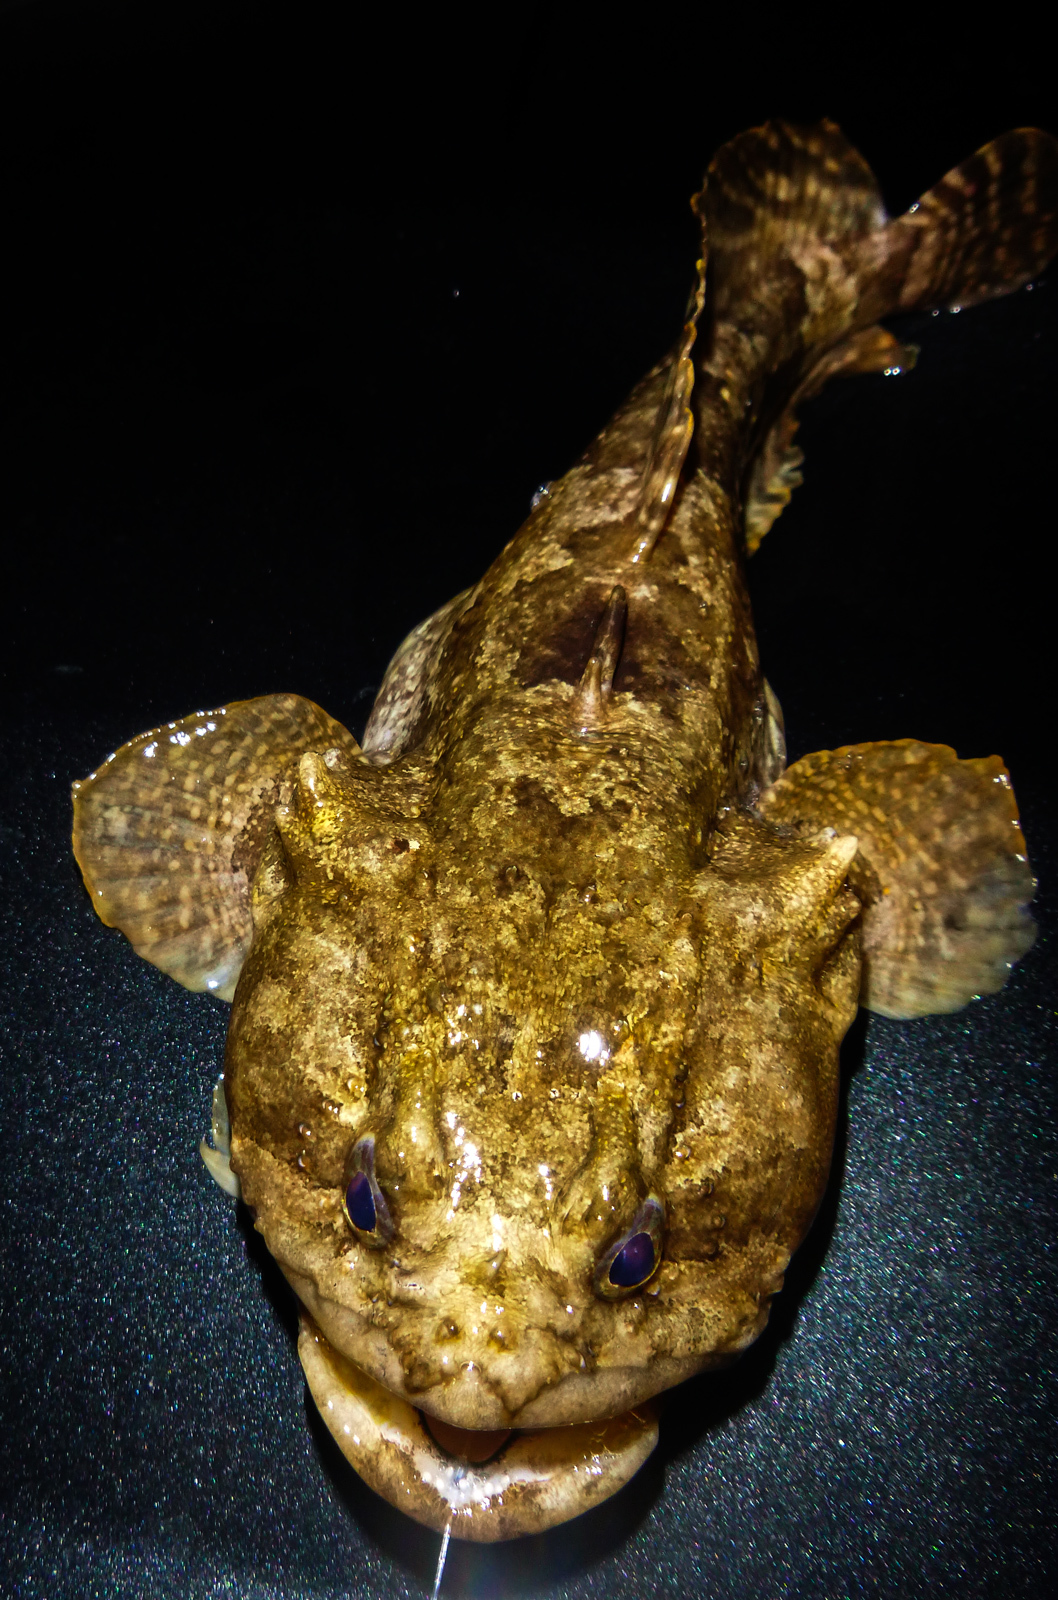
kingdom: Animalia
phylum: Chordata
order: Batrachoidiformes
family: Batrachoididae
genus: Opsanus
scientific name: Opsanus beta
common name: Gulf toadfish
